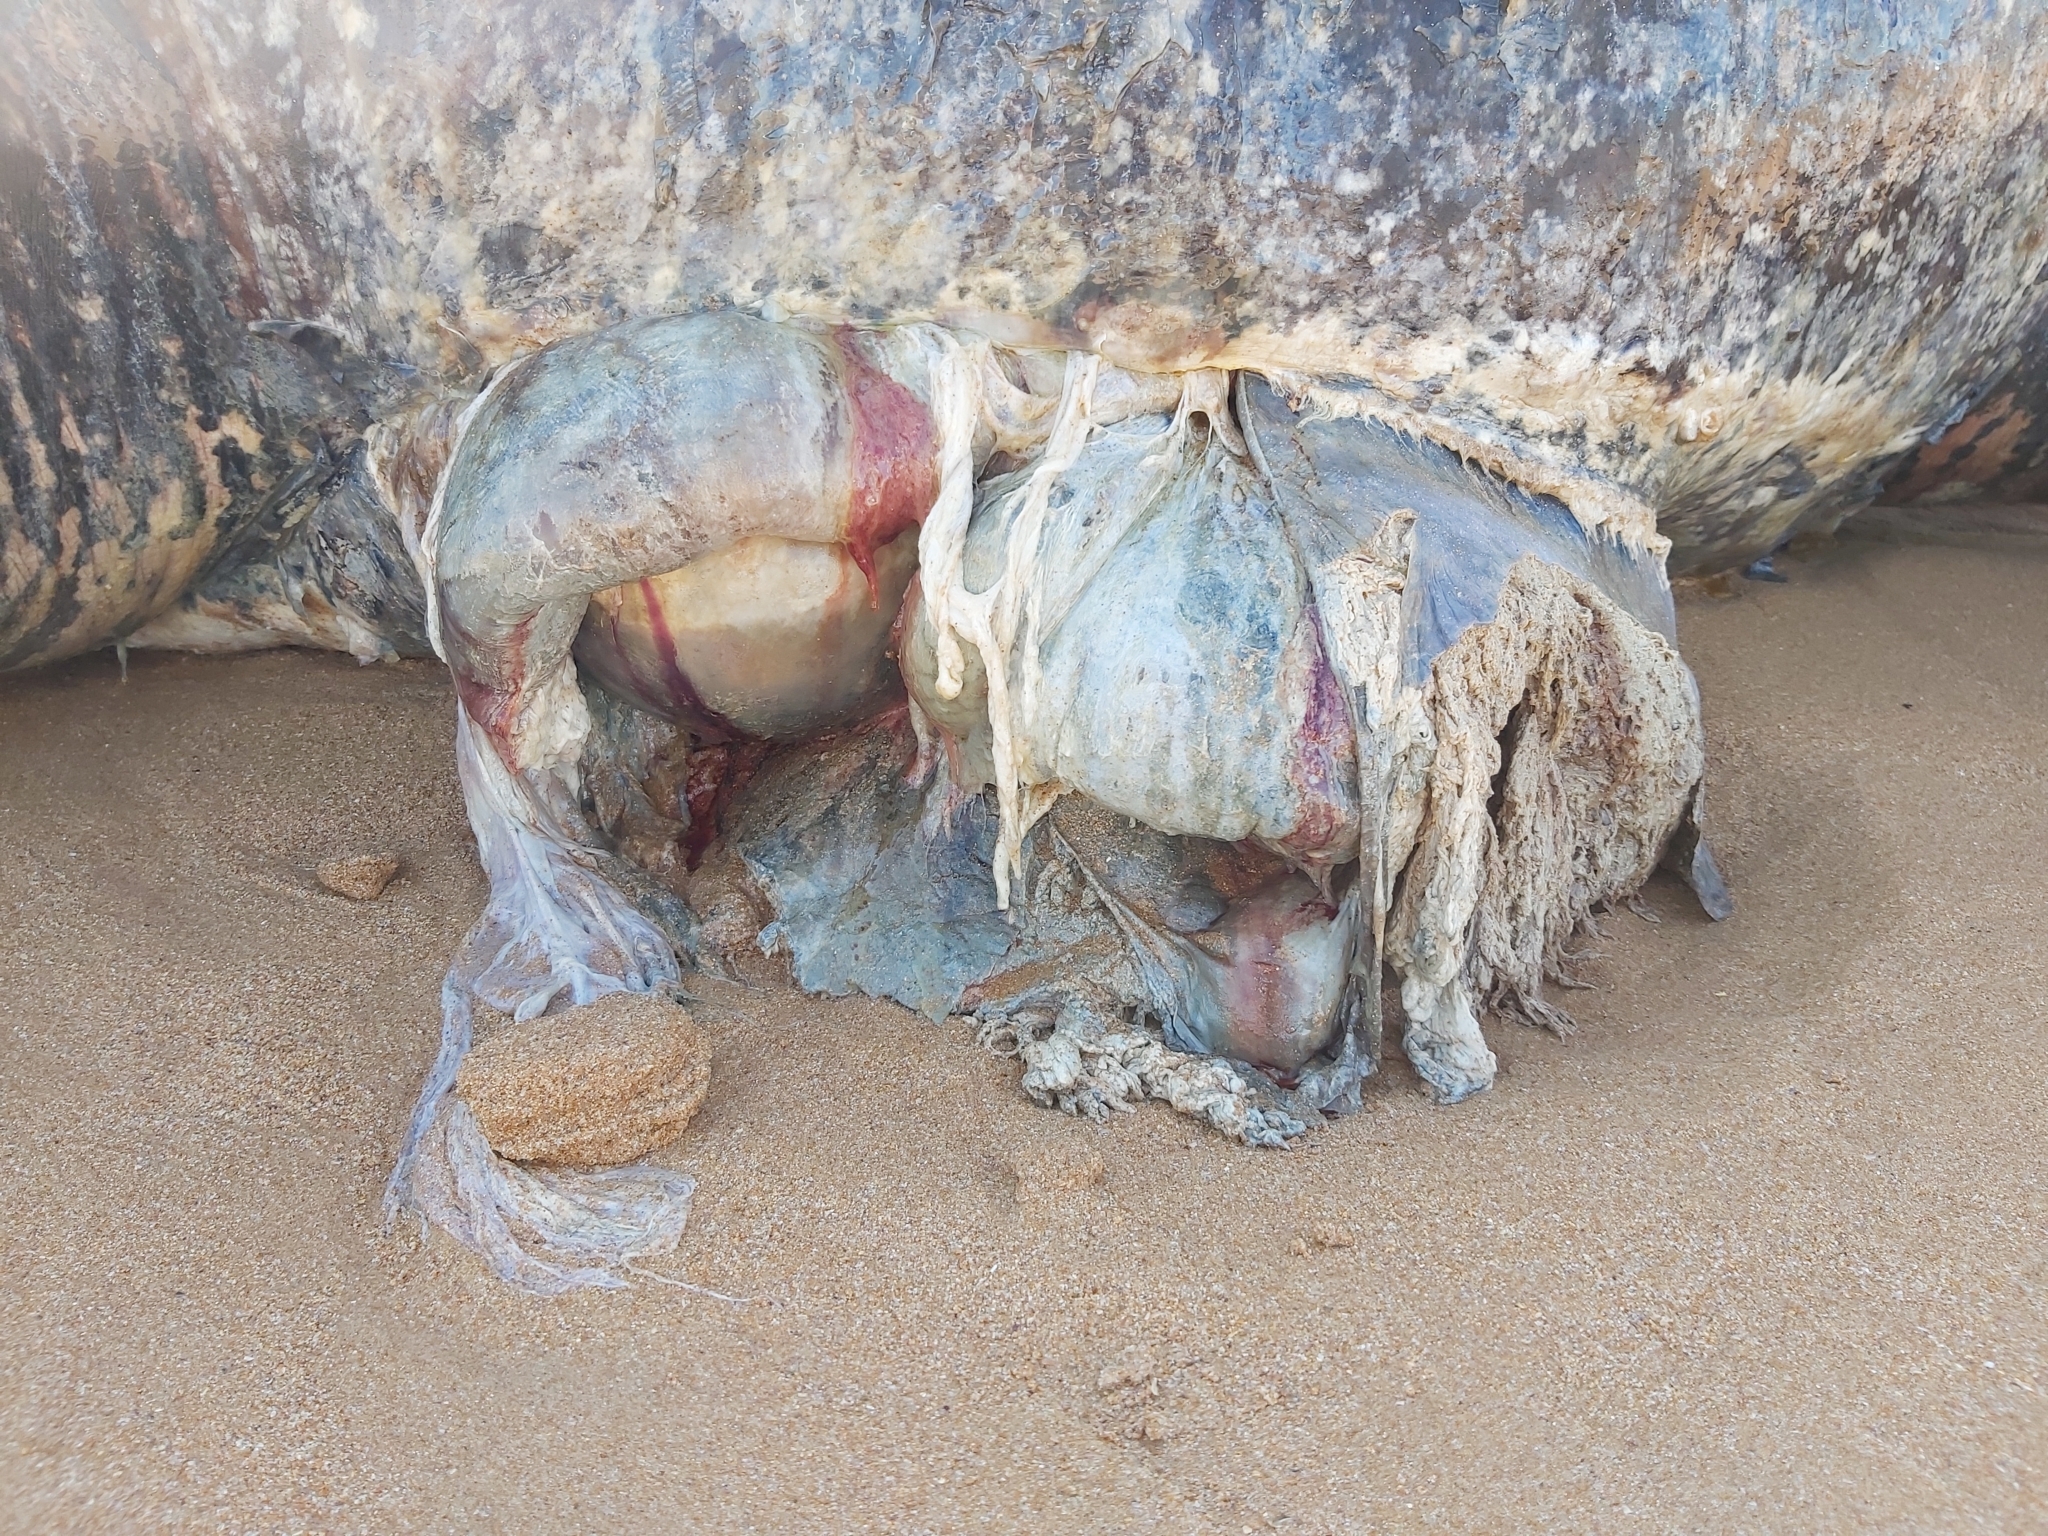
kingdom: Animalia
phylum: Chordata
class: Testudines
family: Dermochelyidae
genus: Dermochelys
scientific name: Dermochelys coriacea
